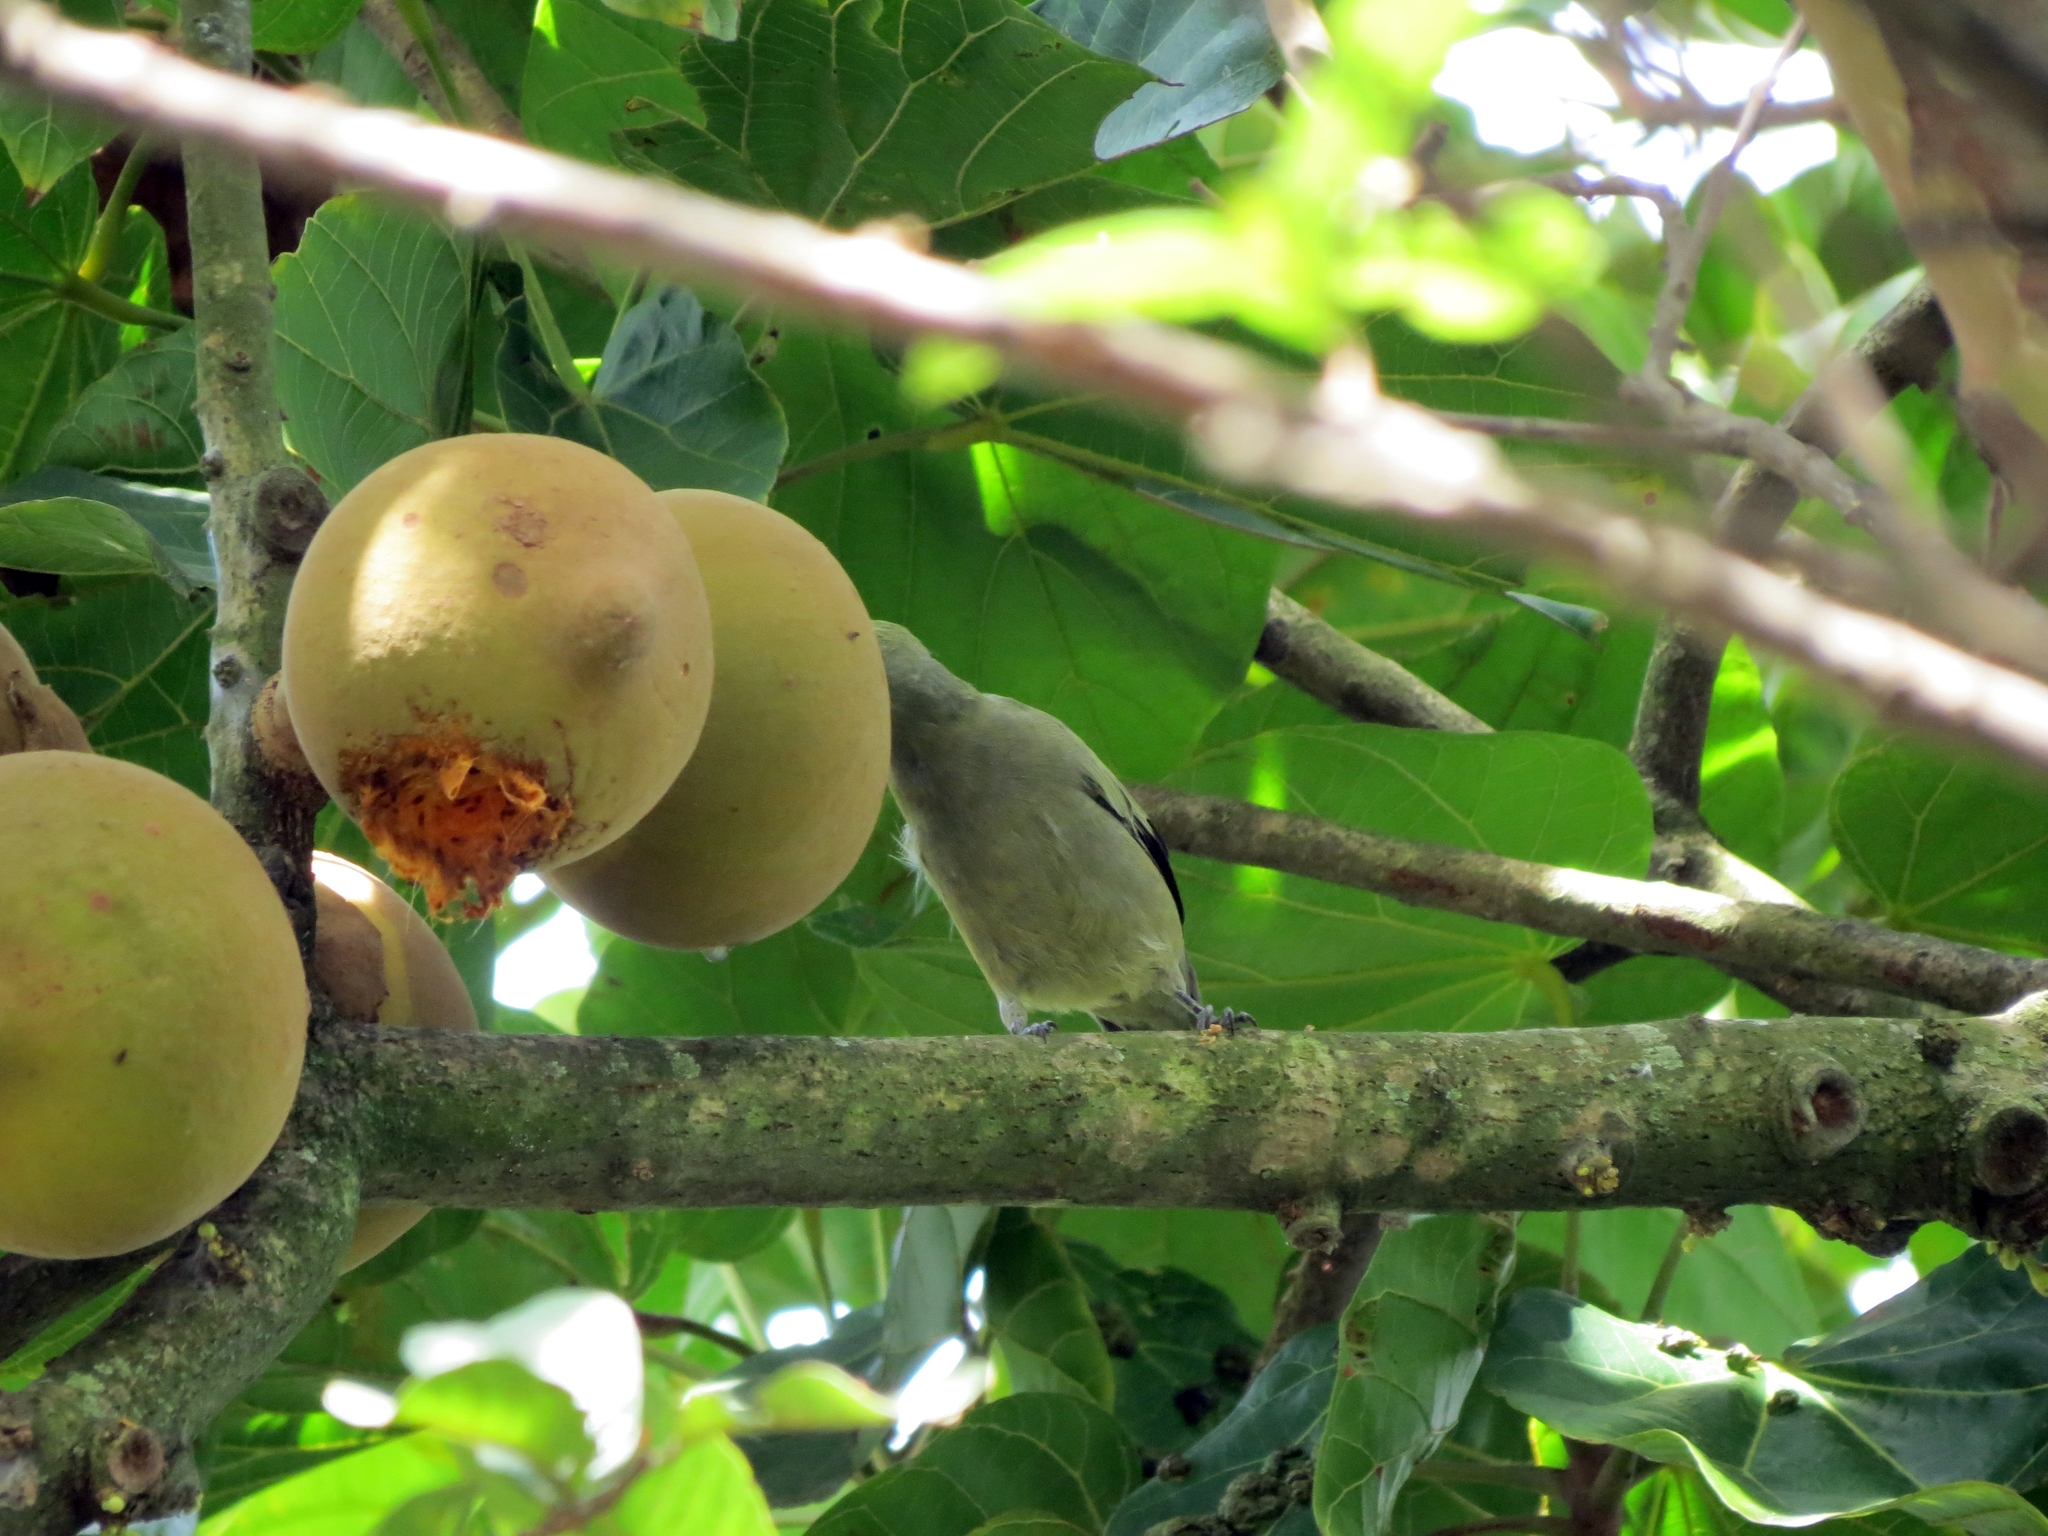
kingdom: Animalia
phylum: Chordata
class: Aves
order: Passeriformes
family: Thraupidae
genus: Thraupis
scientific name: Thraupis palmarum
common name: Palm tanager
